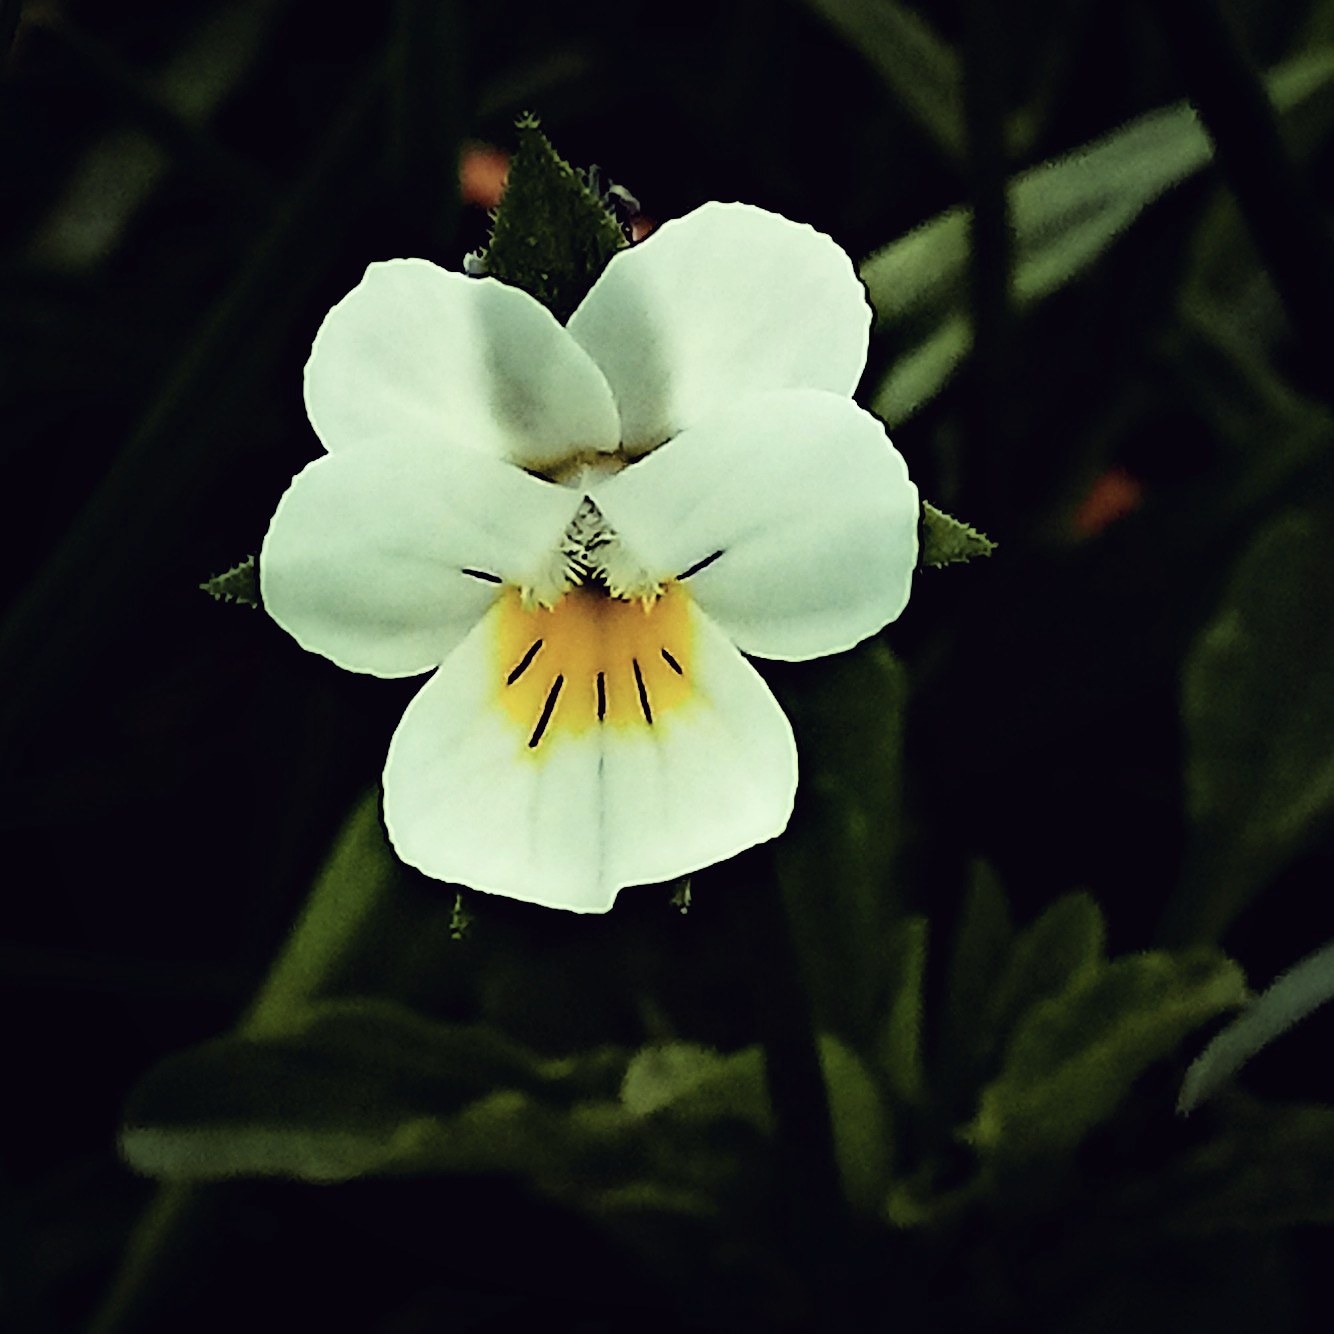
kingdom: Plantae
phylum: Tracheophyta
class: Magnoliopsida
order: Malpighiales
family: Violaceae
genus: Viola
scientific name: Viola arvensis
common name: Field pansy
